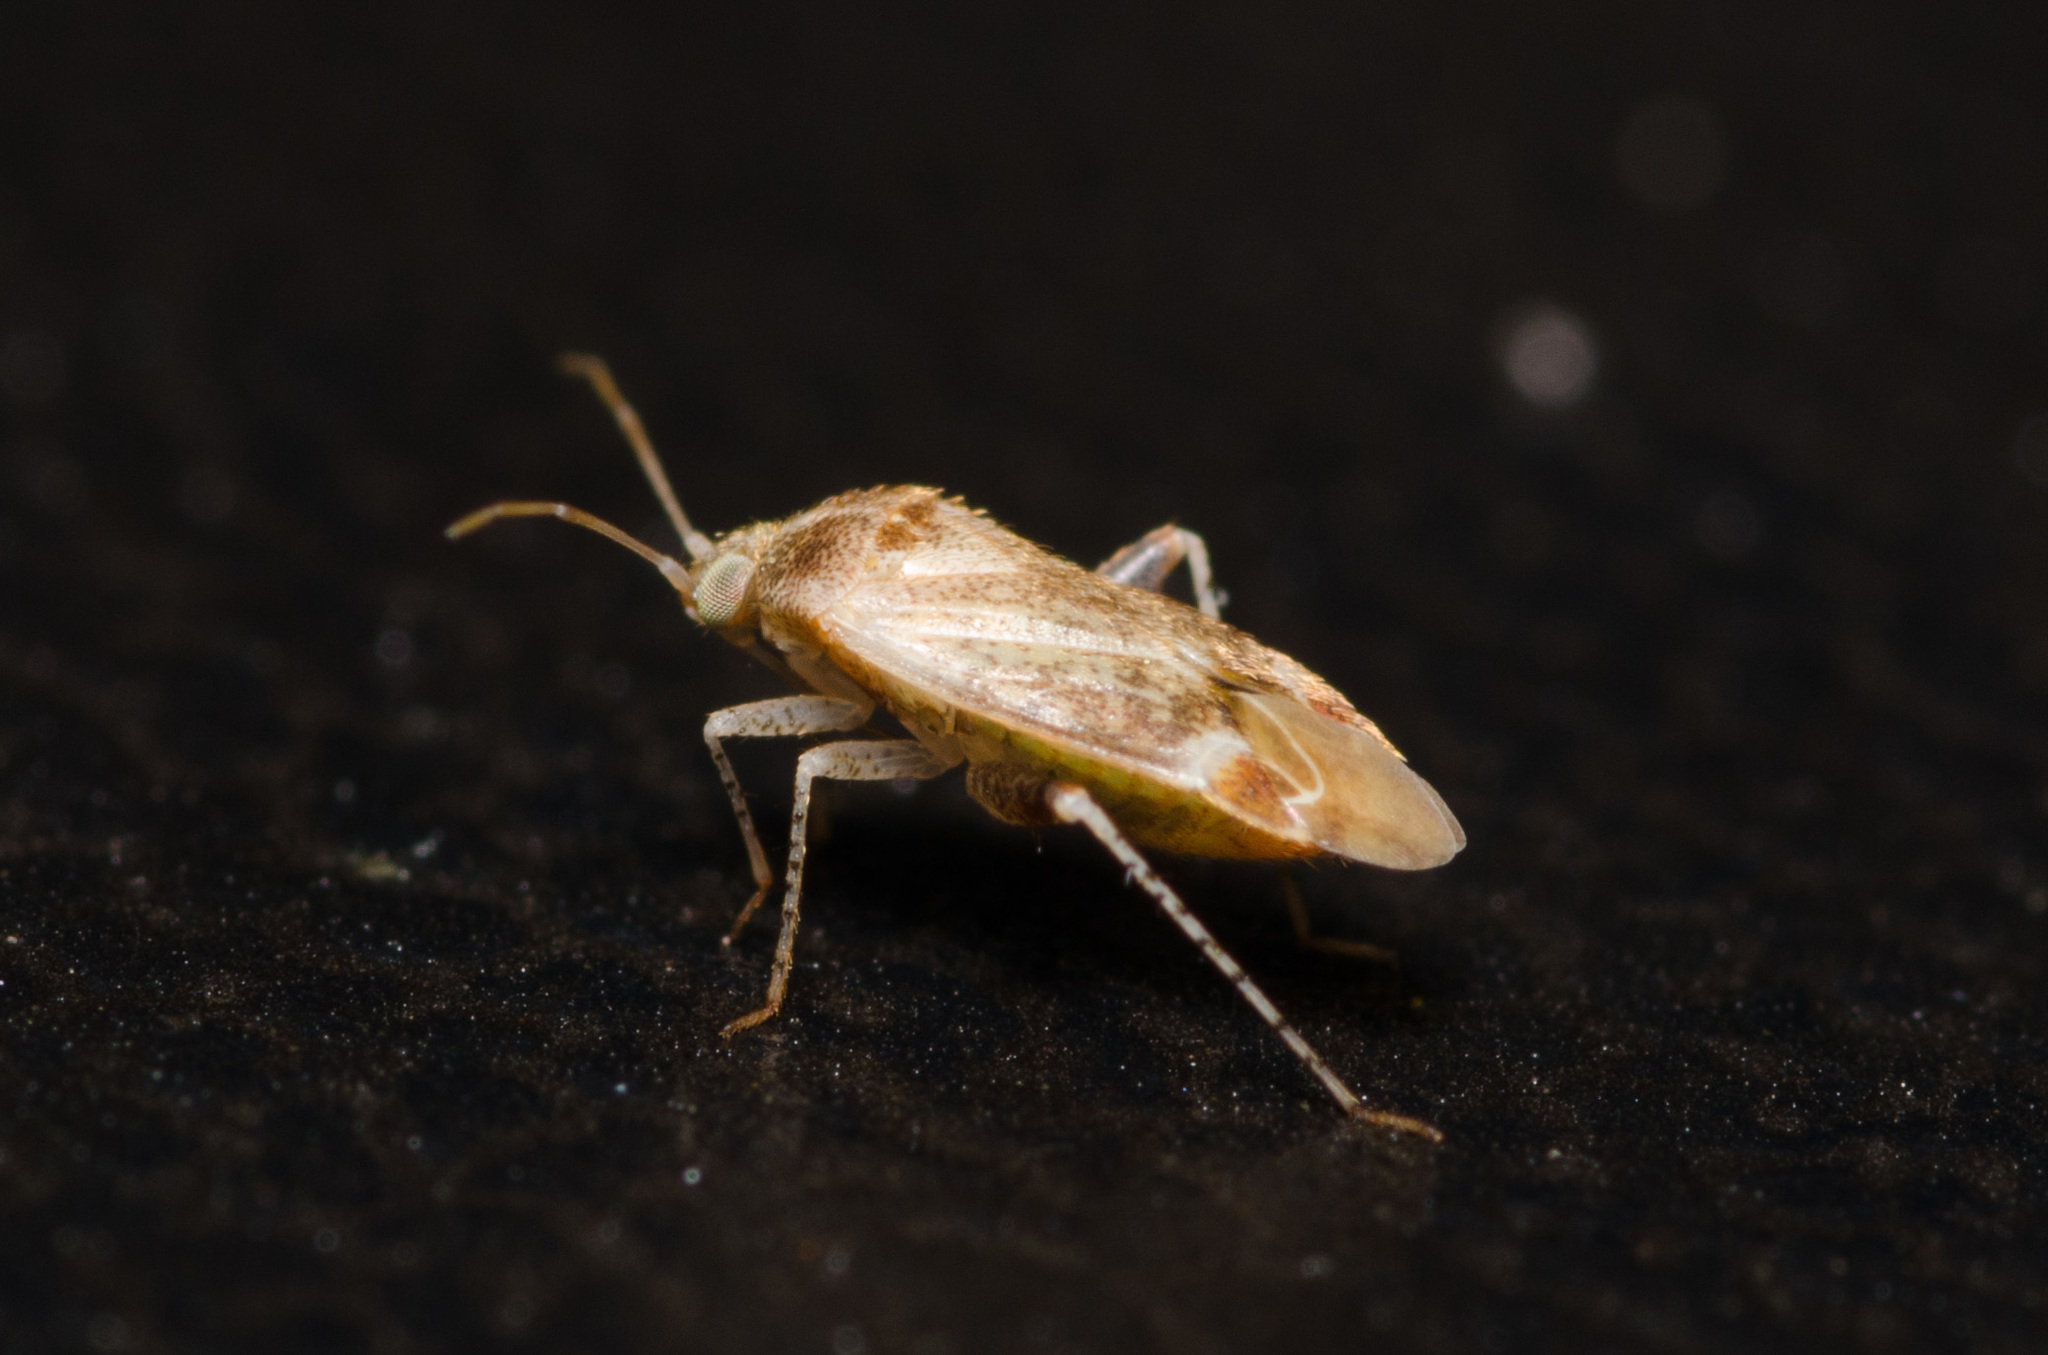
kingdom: Animalia
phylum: Arthropoda
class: Insecta
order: Hemiptera
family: Miridae
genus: Hamatophylus
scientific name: Hamatophylus guttulosus
